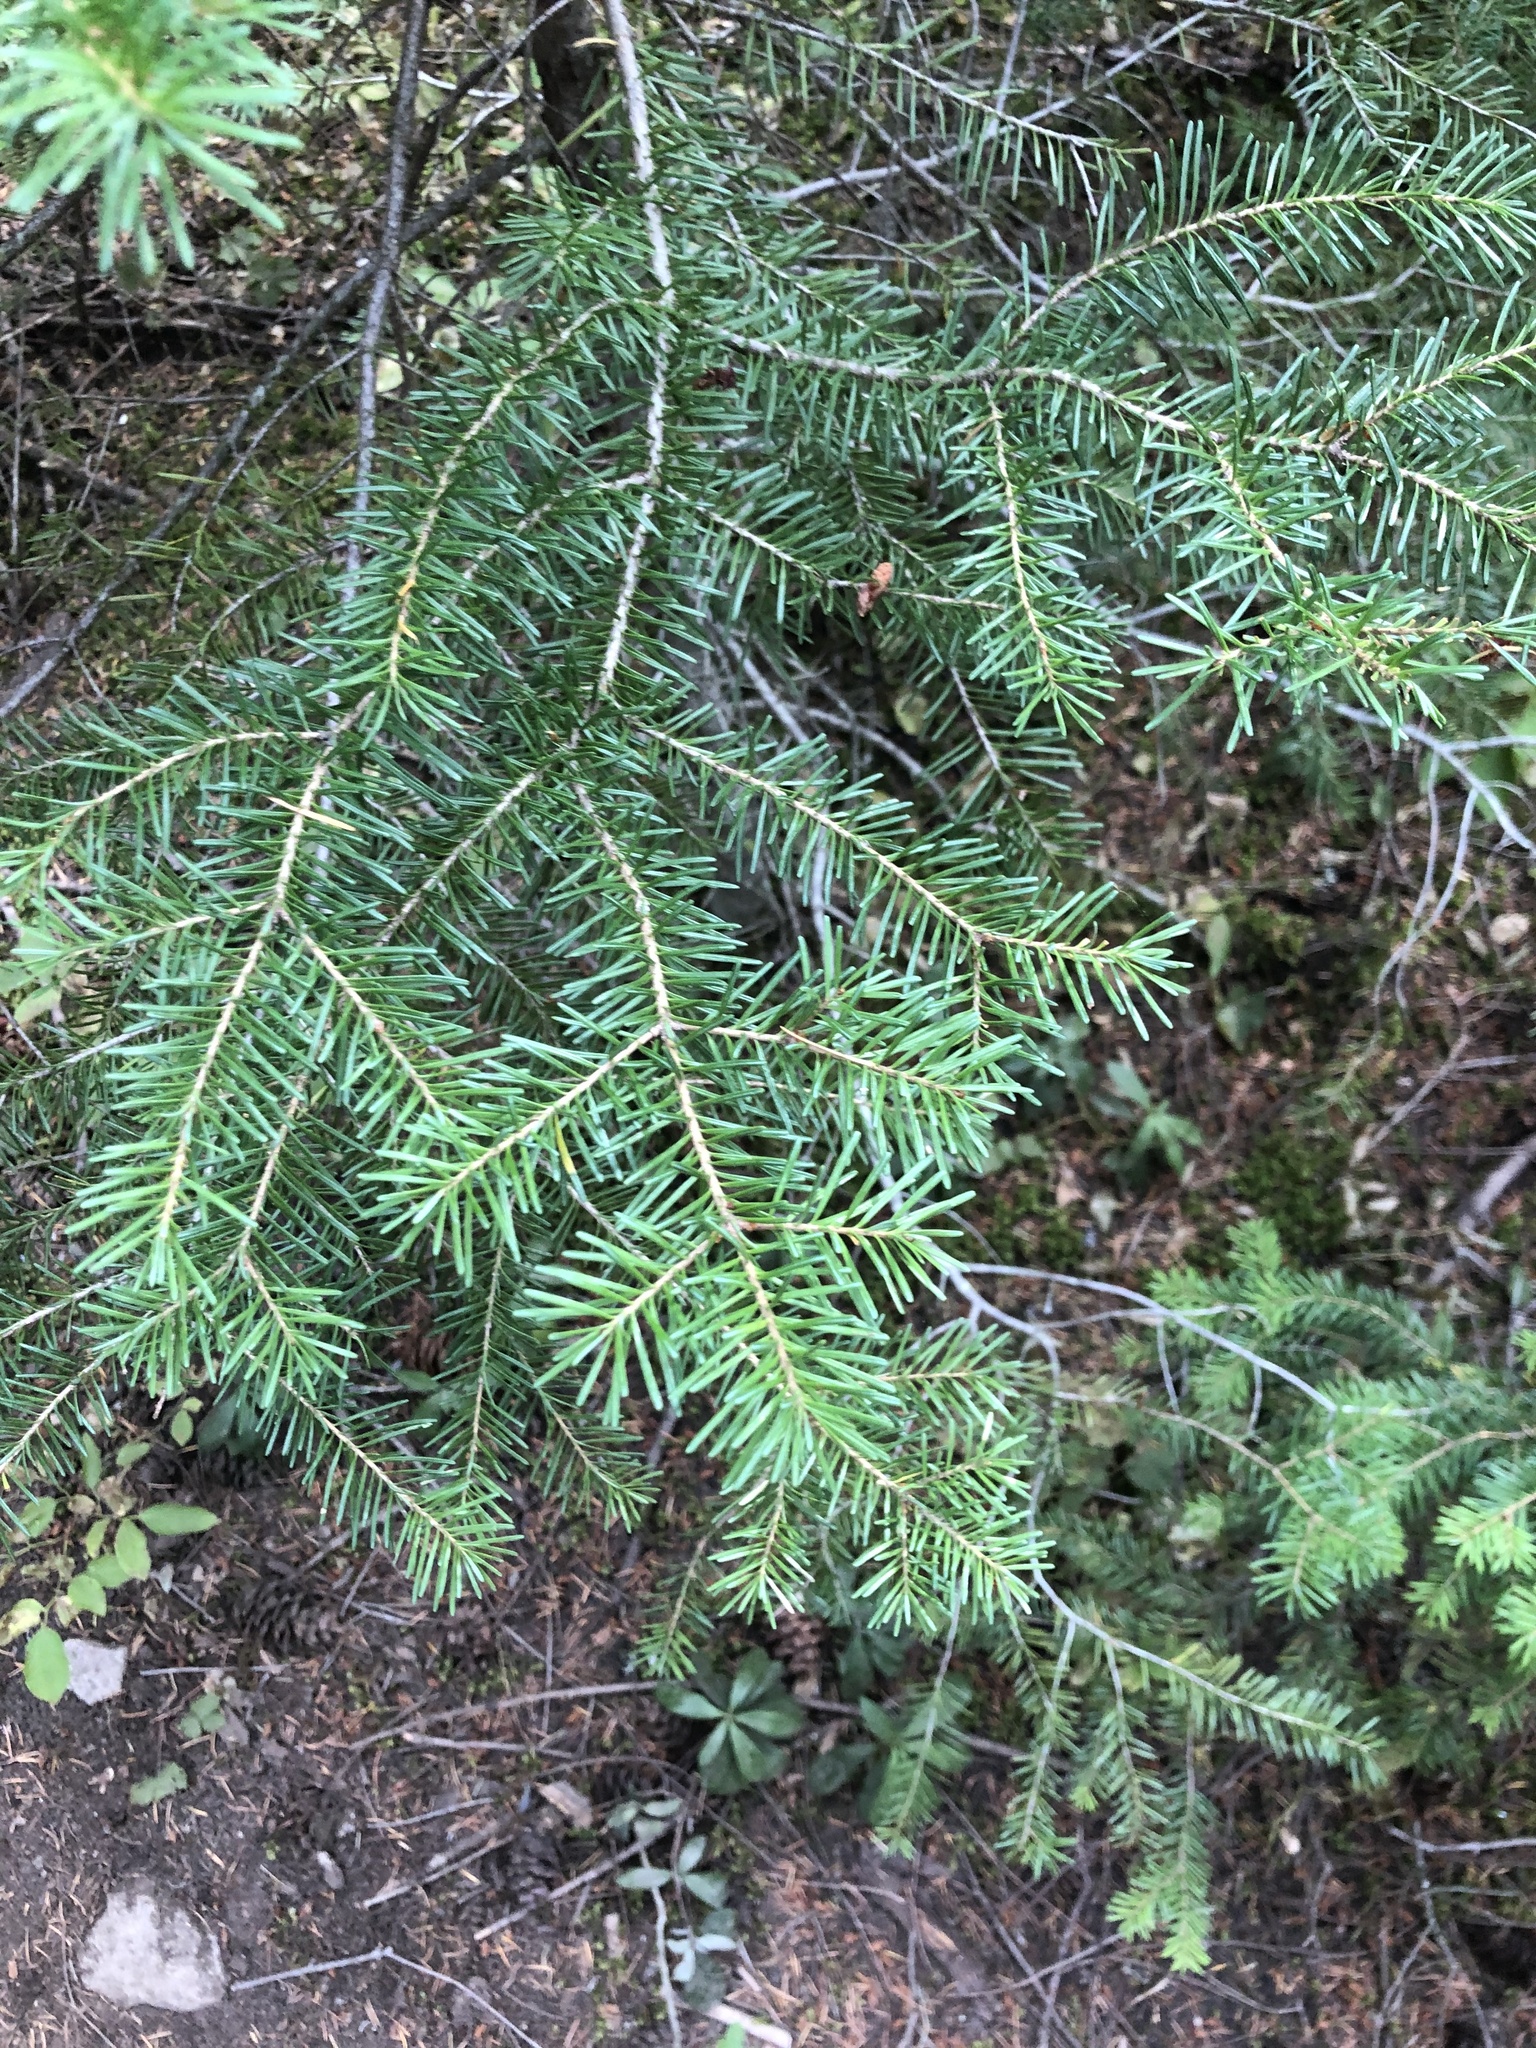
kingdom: Plantae
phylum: Tracheophyta
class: Pinopsida
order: Pinales
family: Pinaceae
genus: Abies
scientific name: Abies lasiocarpa
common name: Subalpine fir
